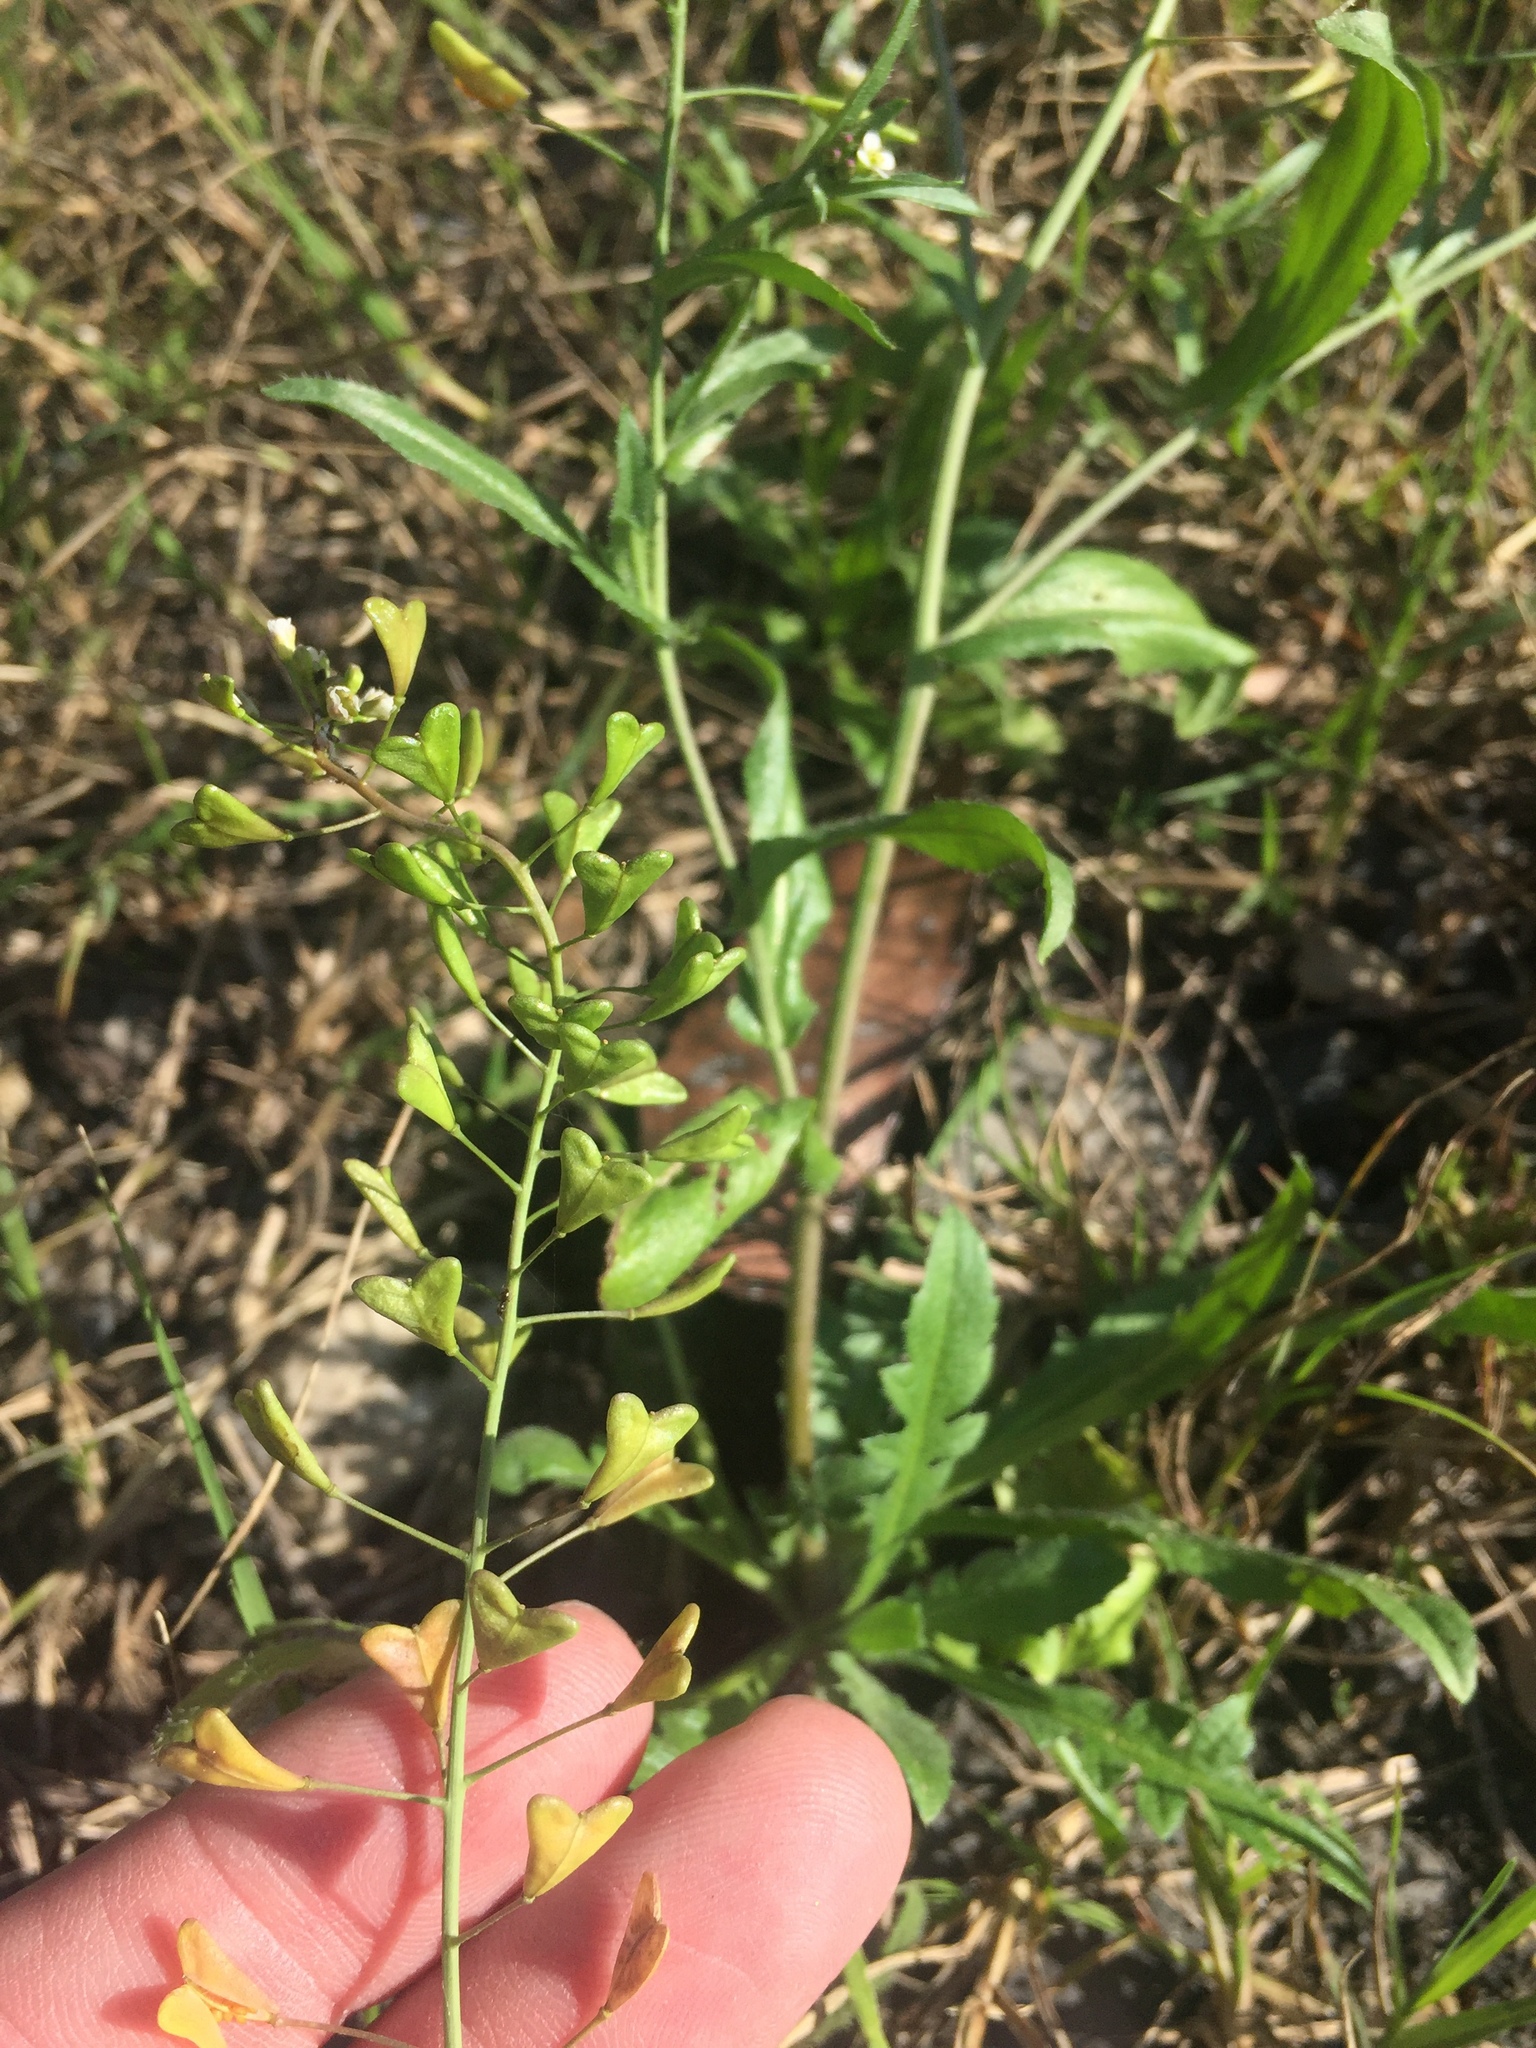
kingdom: Plantae
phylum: Tracheophyta
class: Magnoliopsida
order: Brassicales
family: Brassicaceae
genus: Capsella
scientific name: Capsella bursa-pastoris
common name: Shepherd's purse
